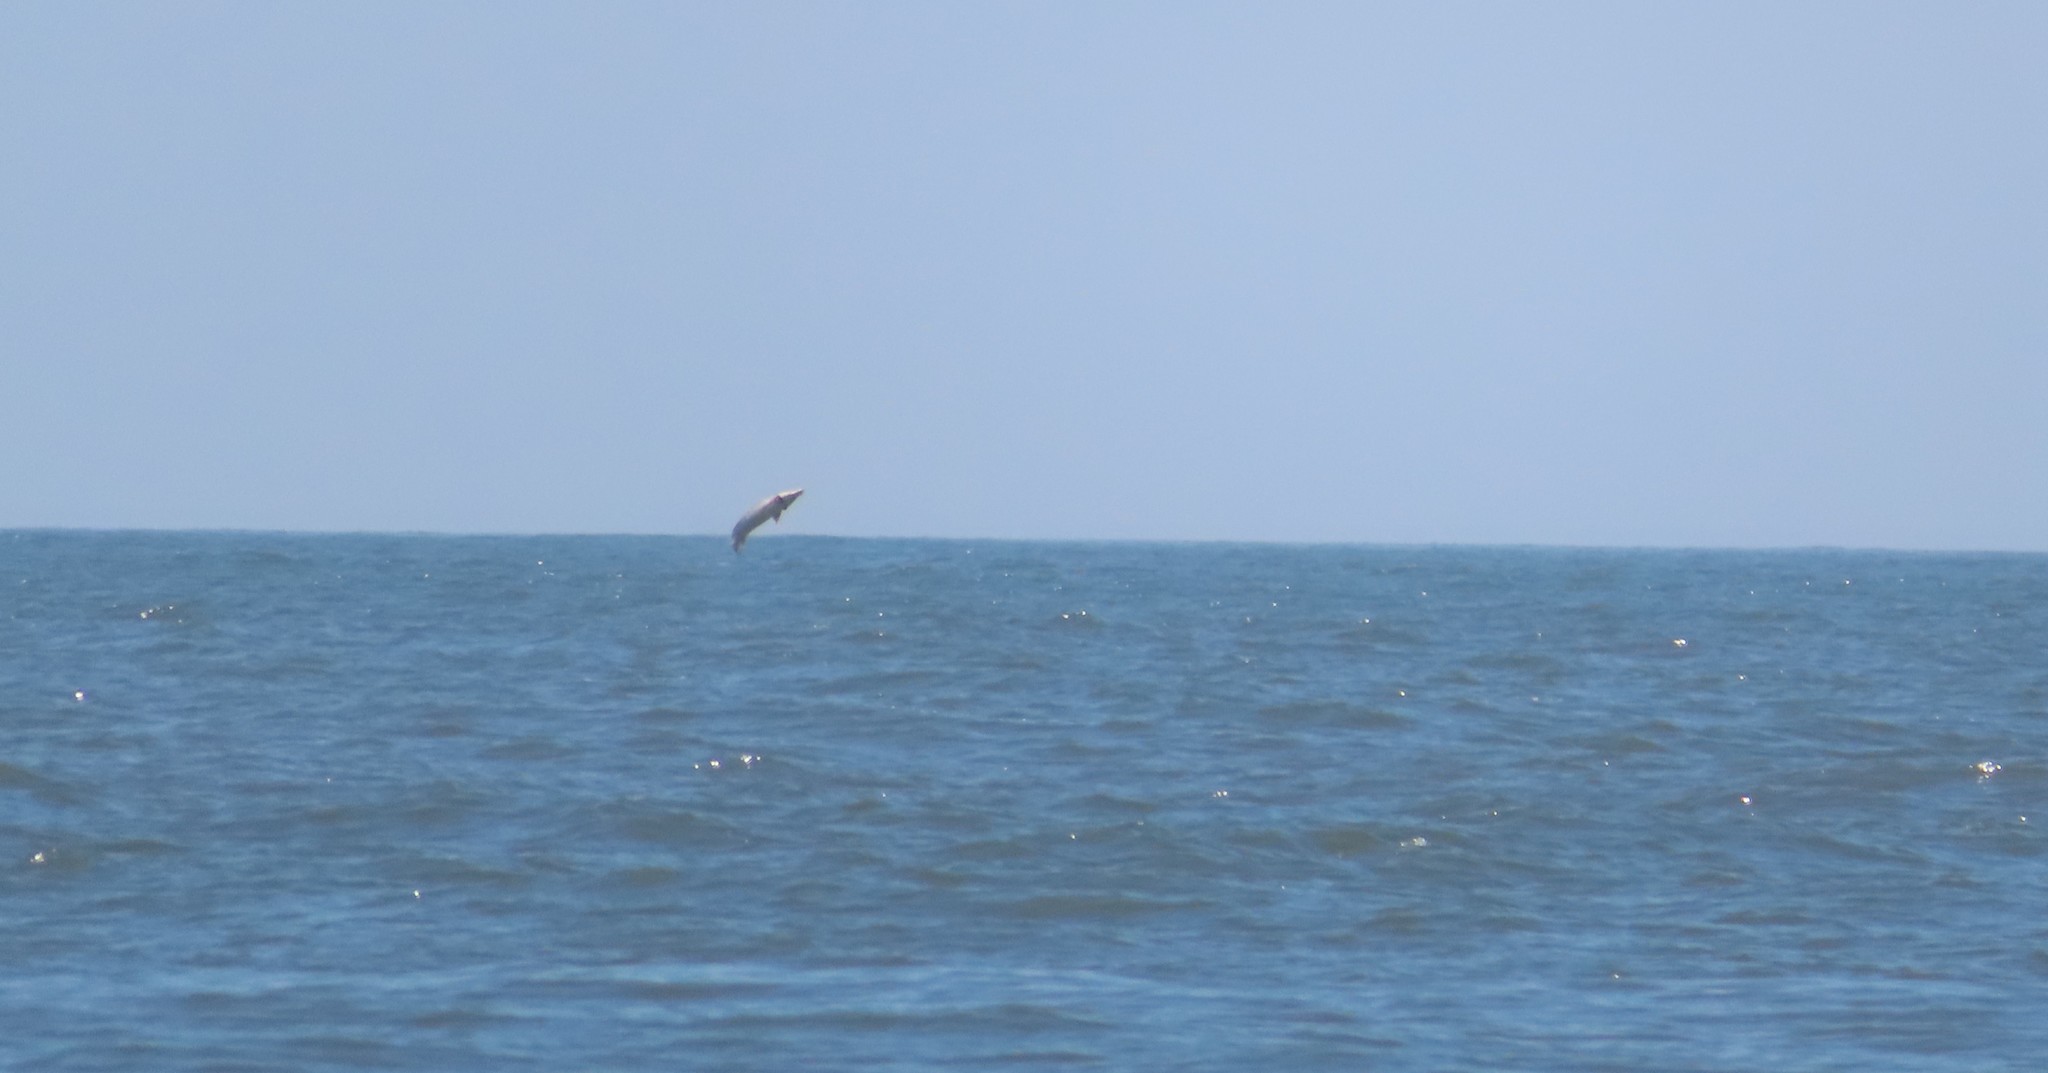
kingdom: Animalia
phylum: Chordata
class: Mammalia
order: Cetacea
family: Delphinidae
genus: Tursiops
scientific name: Tursiops truncatus
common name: Bottlenose dolphin
